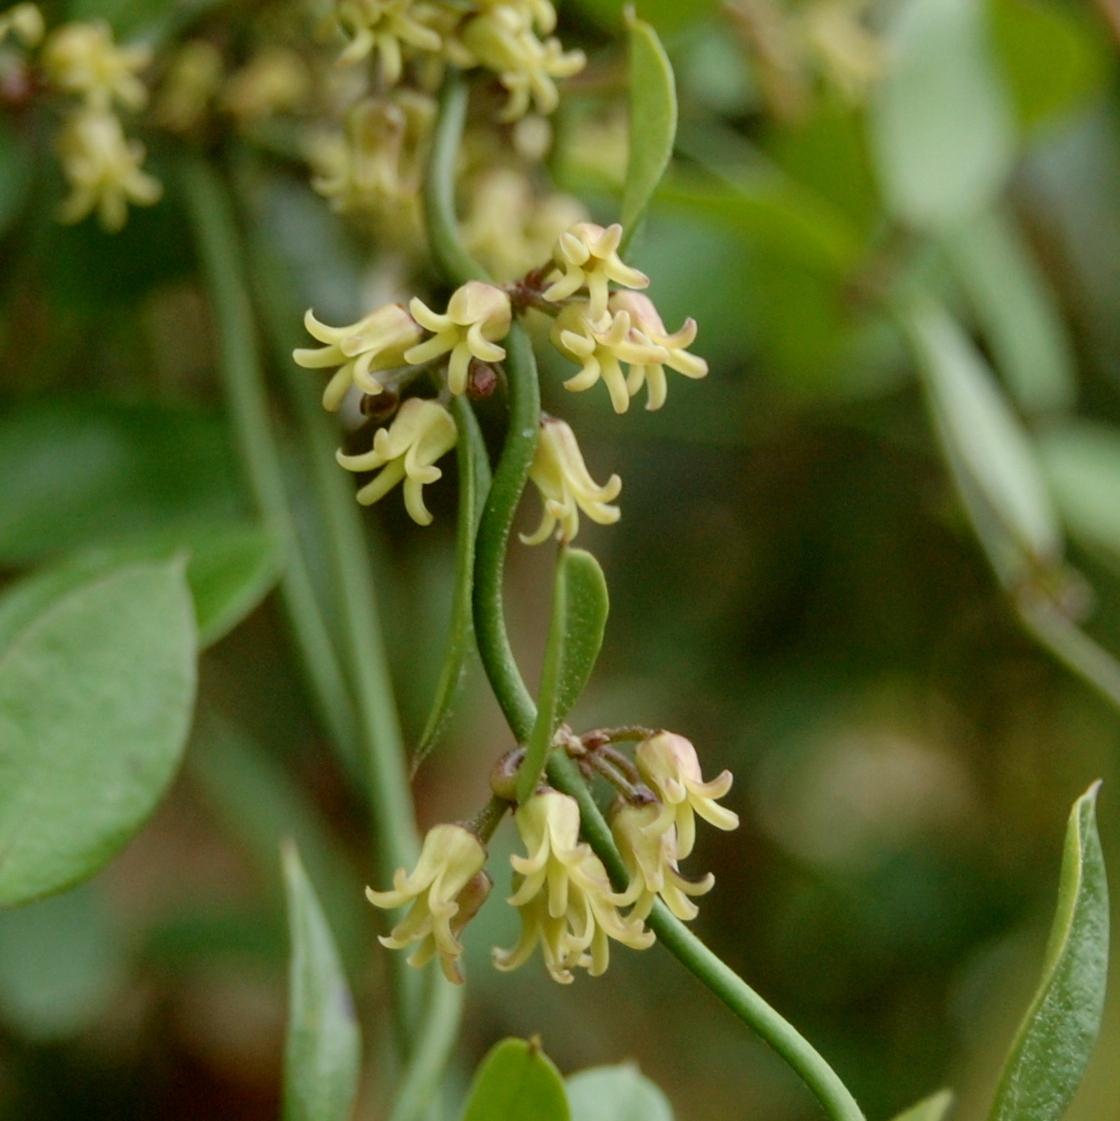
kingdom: Plantae
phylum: Tracheophyta
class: Magnoliopsida
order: Gentianales
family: Apocynaceae
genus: Orthosia
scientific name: Orthosia urceolata
